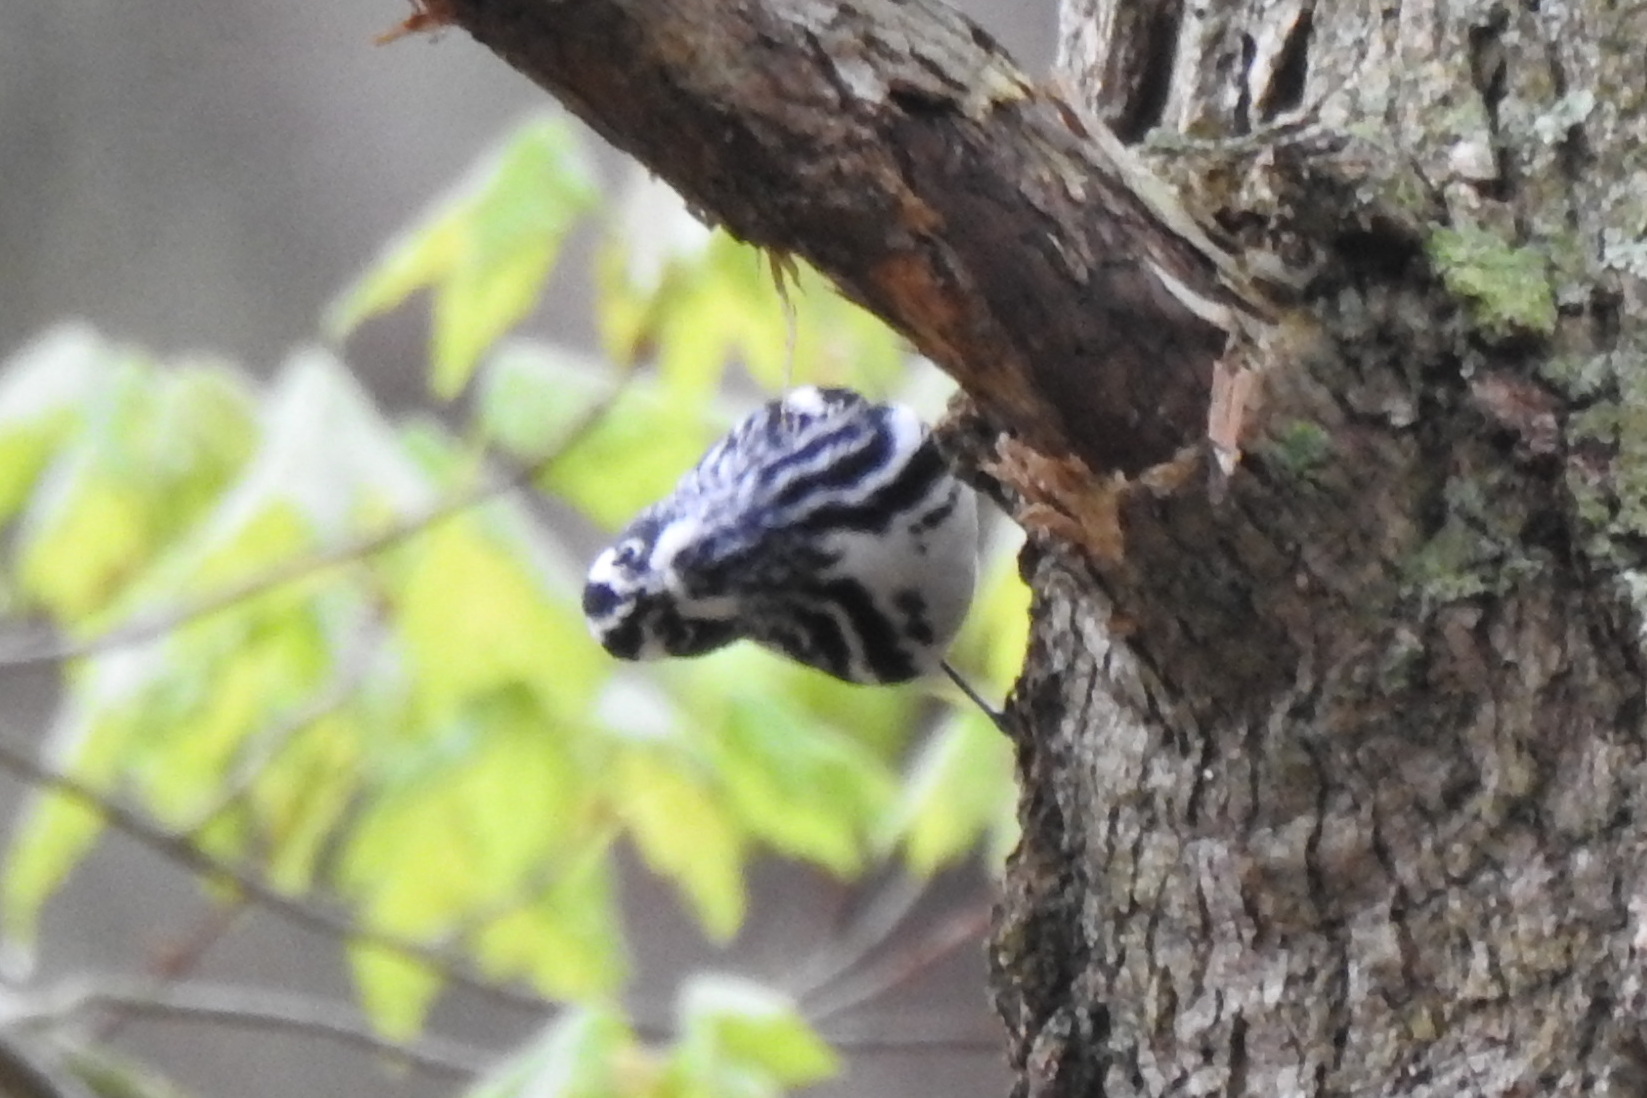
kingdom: Animalia
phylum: Chordata
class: Aves
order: Passeriformes
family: Parulidae
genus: Mniotilta
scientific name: Mniotilta varia
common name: Black-and-white warbler
